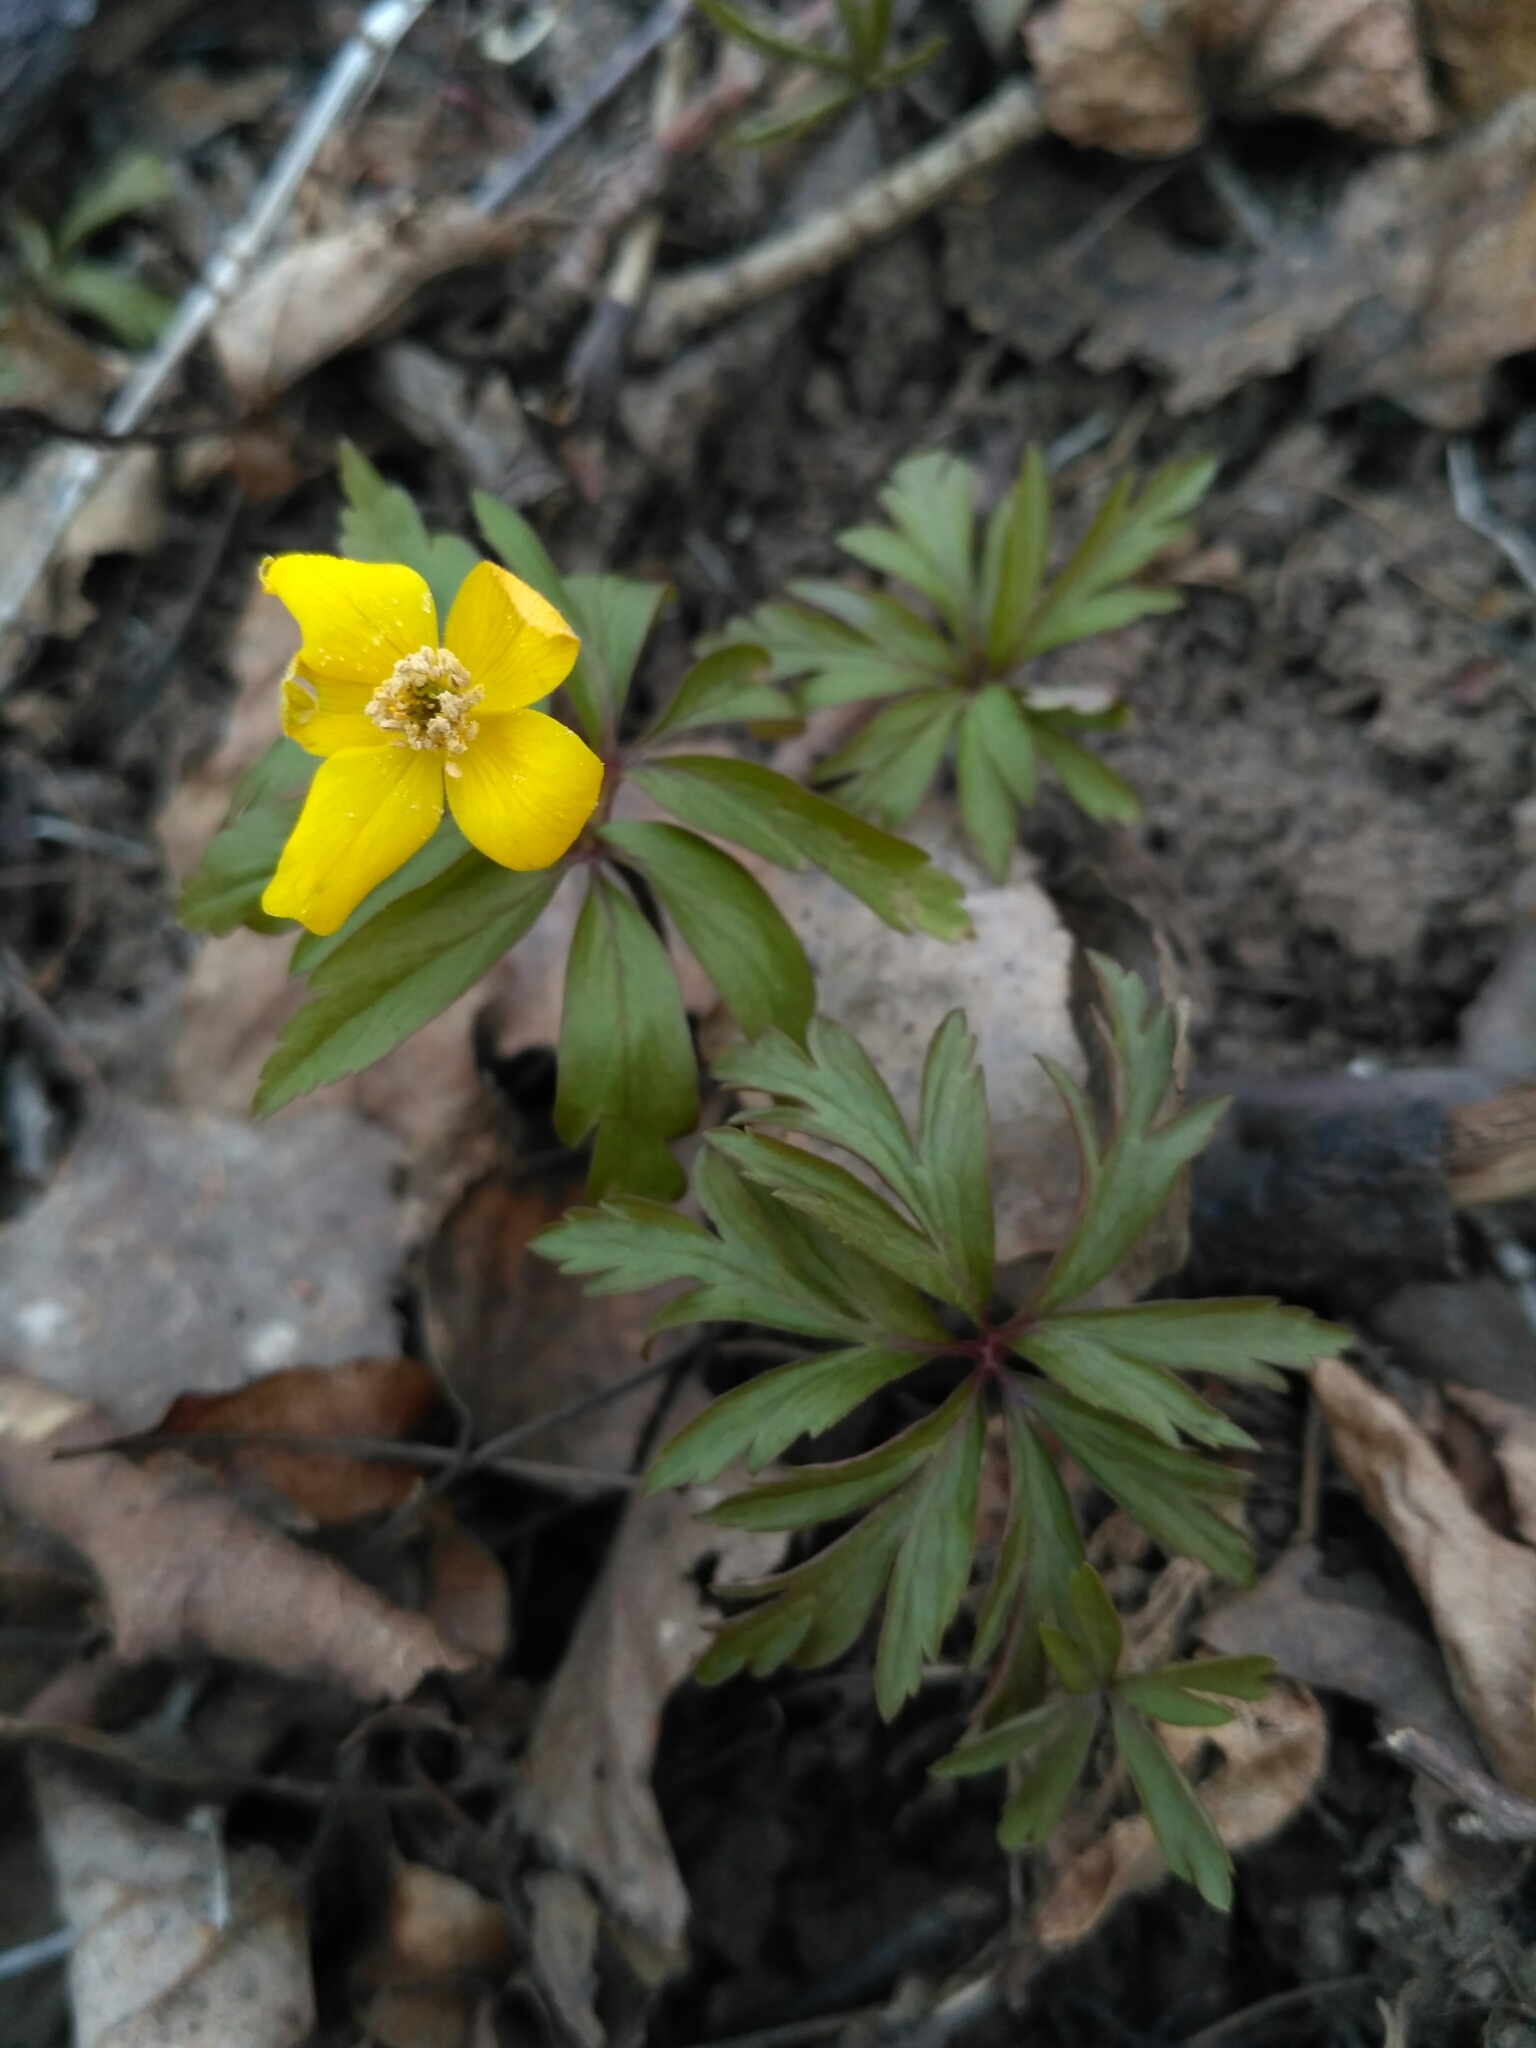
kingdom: Plantae
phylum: Tracheophyta
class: Magnoliopsida
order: Ranunculales
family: Ranunculaceae
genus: Anemone
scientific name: Anemone ranunculoides
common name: Yellow anemone
